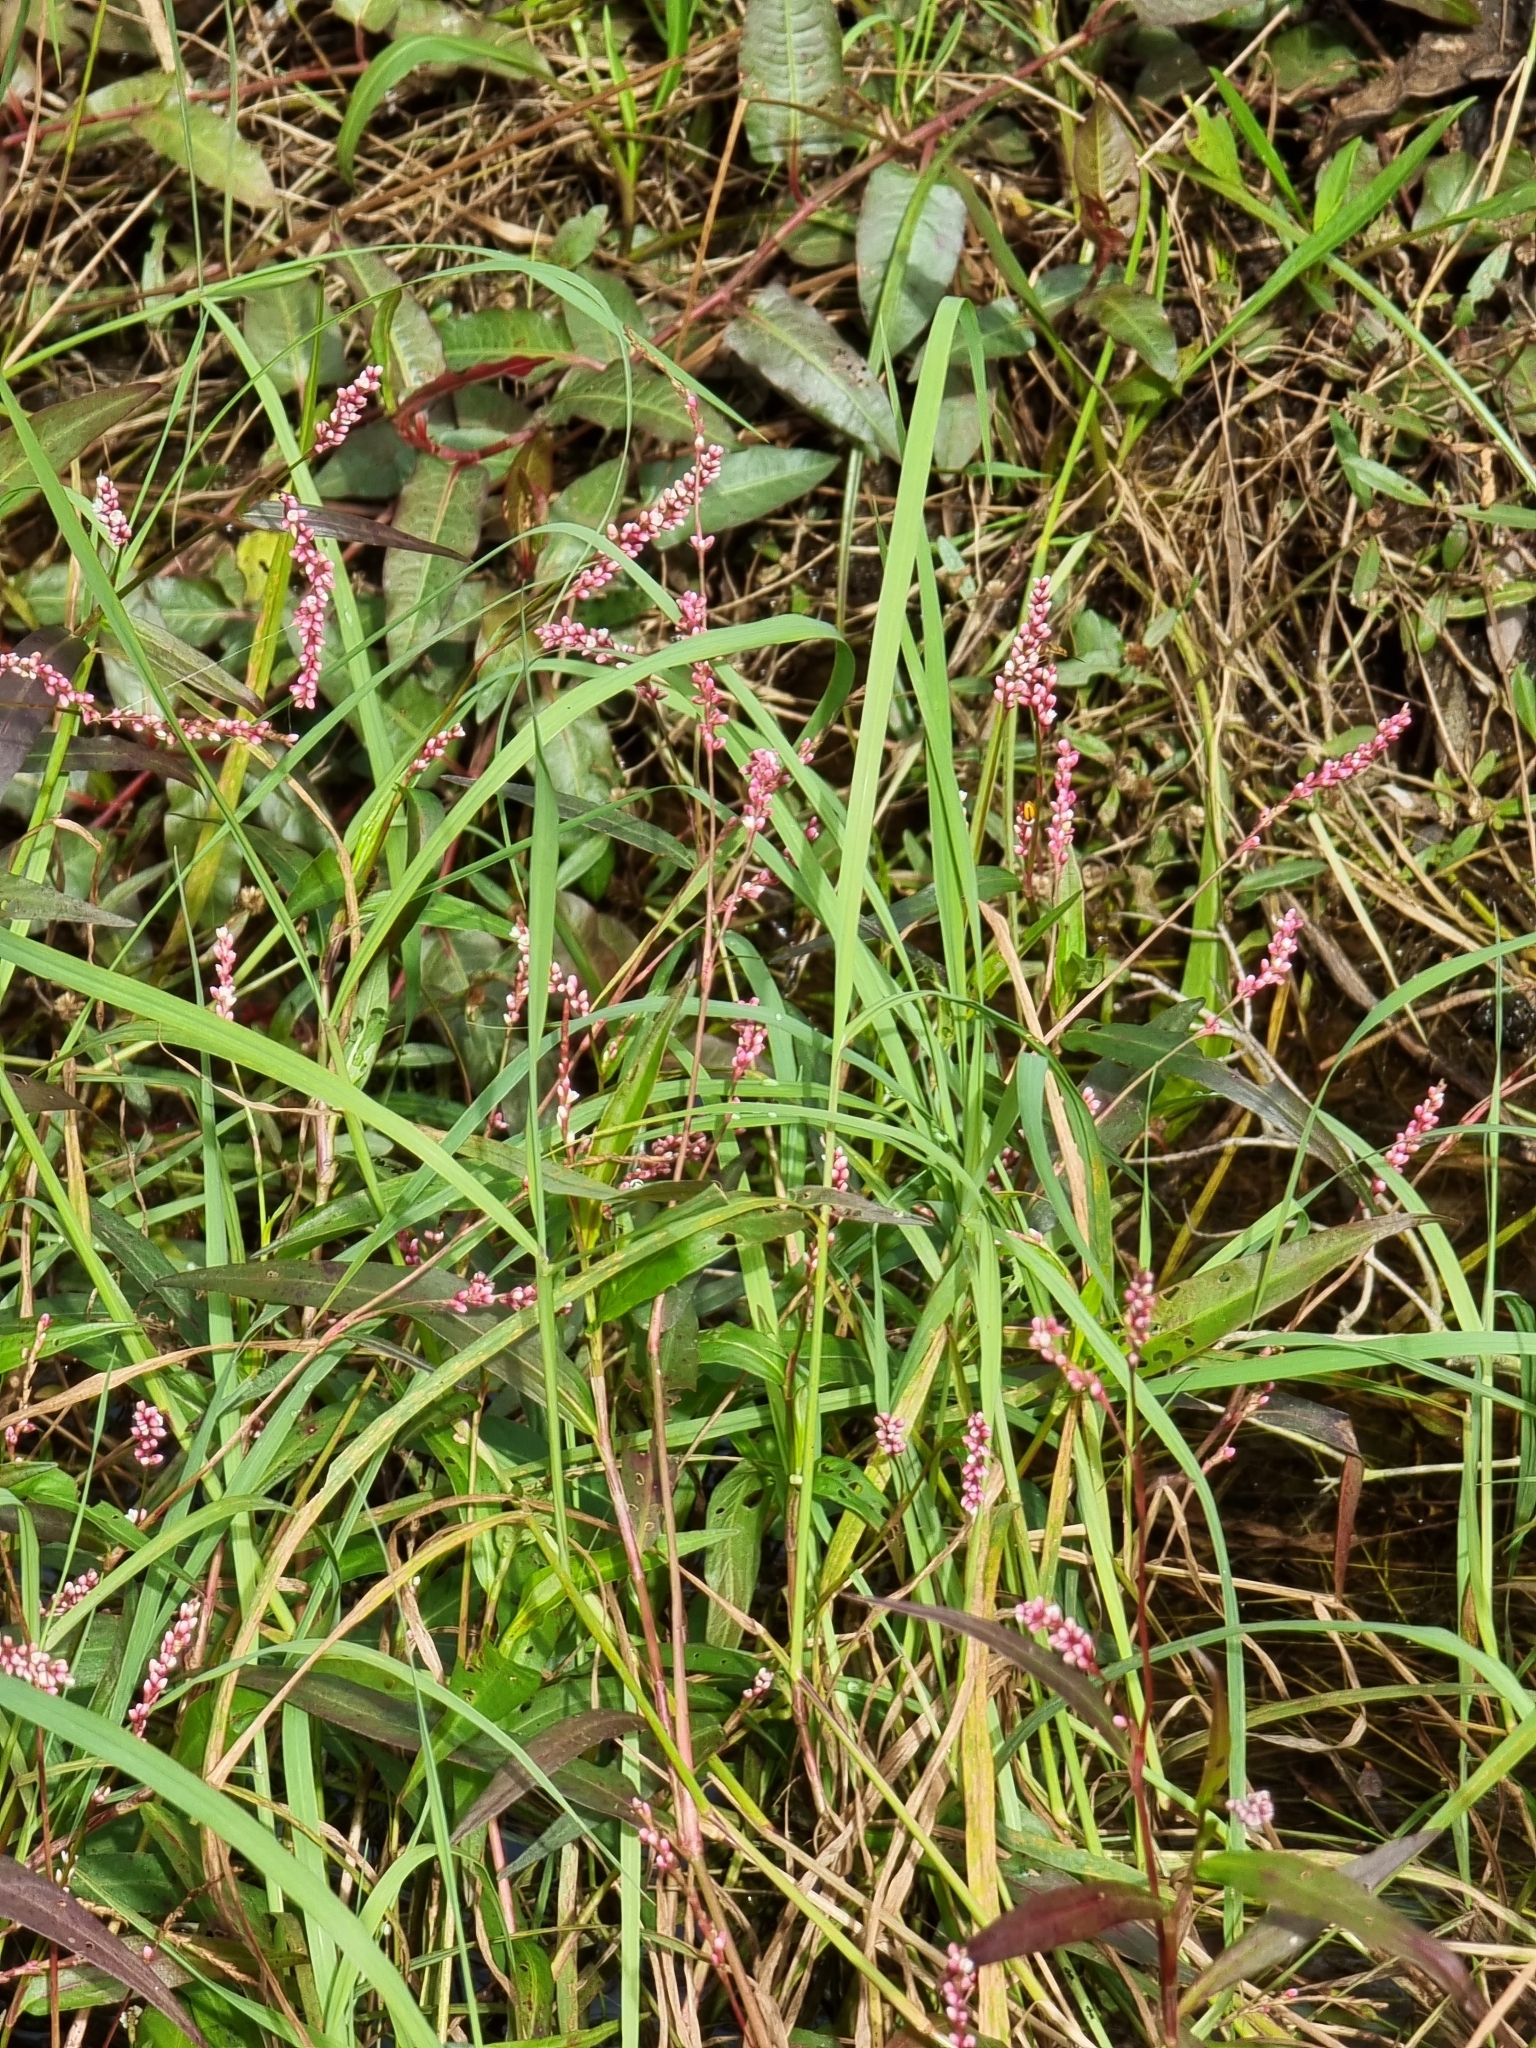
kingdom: Plantae
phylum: Tracheophyta
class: Magnoliopsida
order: Caryophyllales
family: Polygonaceae
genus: Persicaria
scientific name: Persicaria decipiens
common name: Willow-weed
